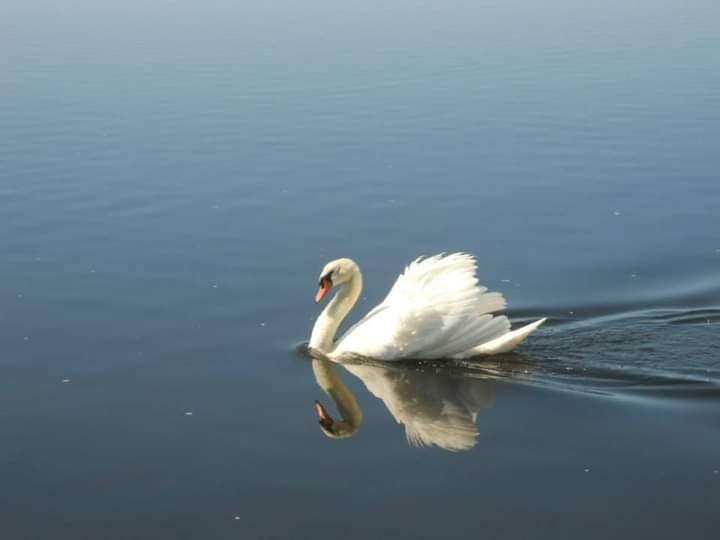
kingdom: Animalia
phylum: Chordata
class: Aves
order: Anseriformes
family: Anatidae
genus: Cygnus
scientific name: Cygnus olor
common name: Mute swan
